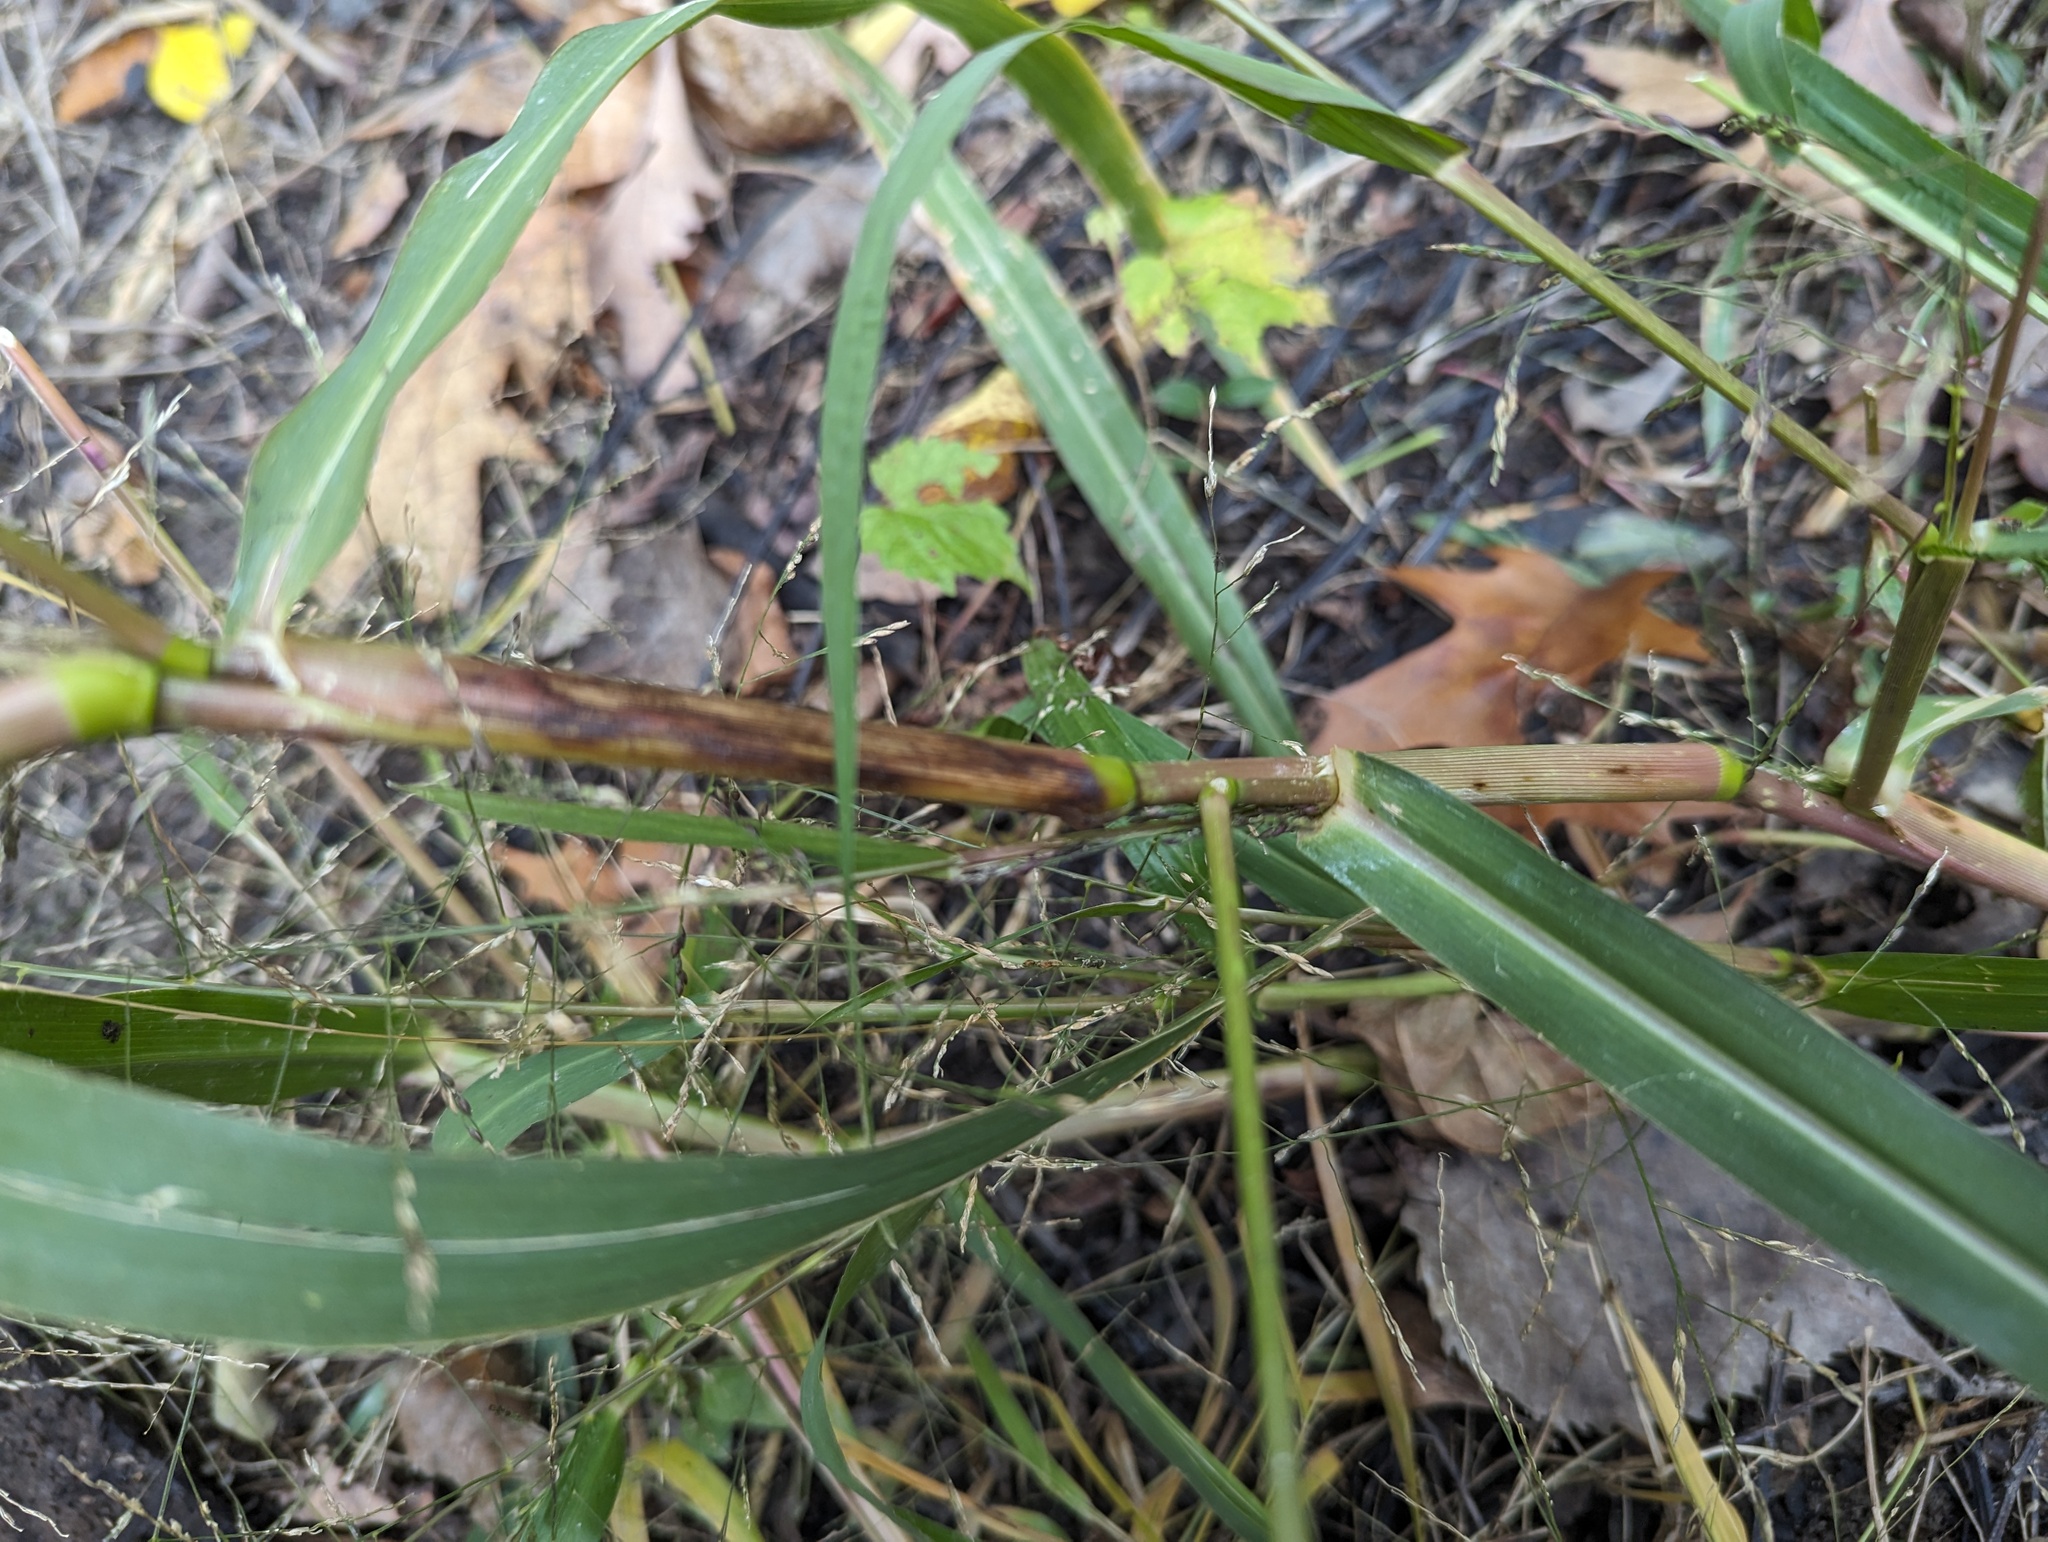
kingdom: Plantae
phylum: Tracheophyta
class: Liliopsida
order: Poales
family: Poaceae
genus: Panicum
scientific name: Panicum dichotomiflorum
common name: Autumn millet
